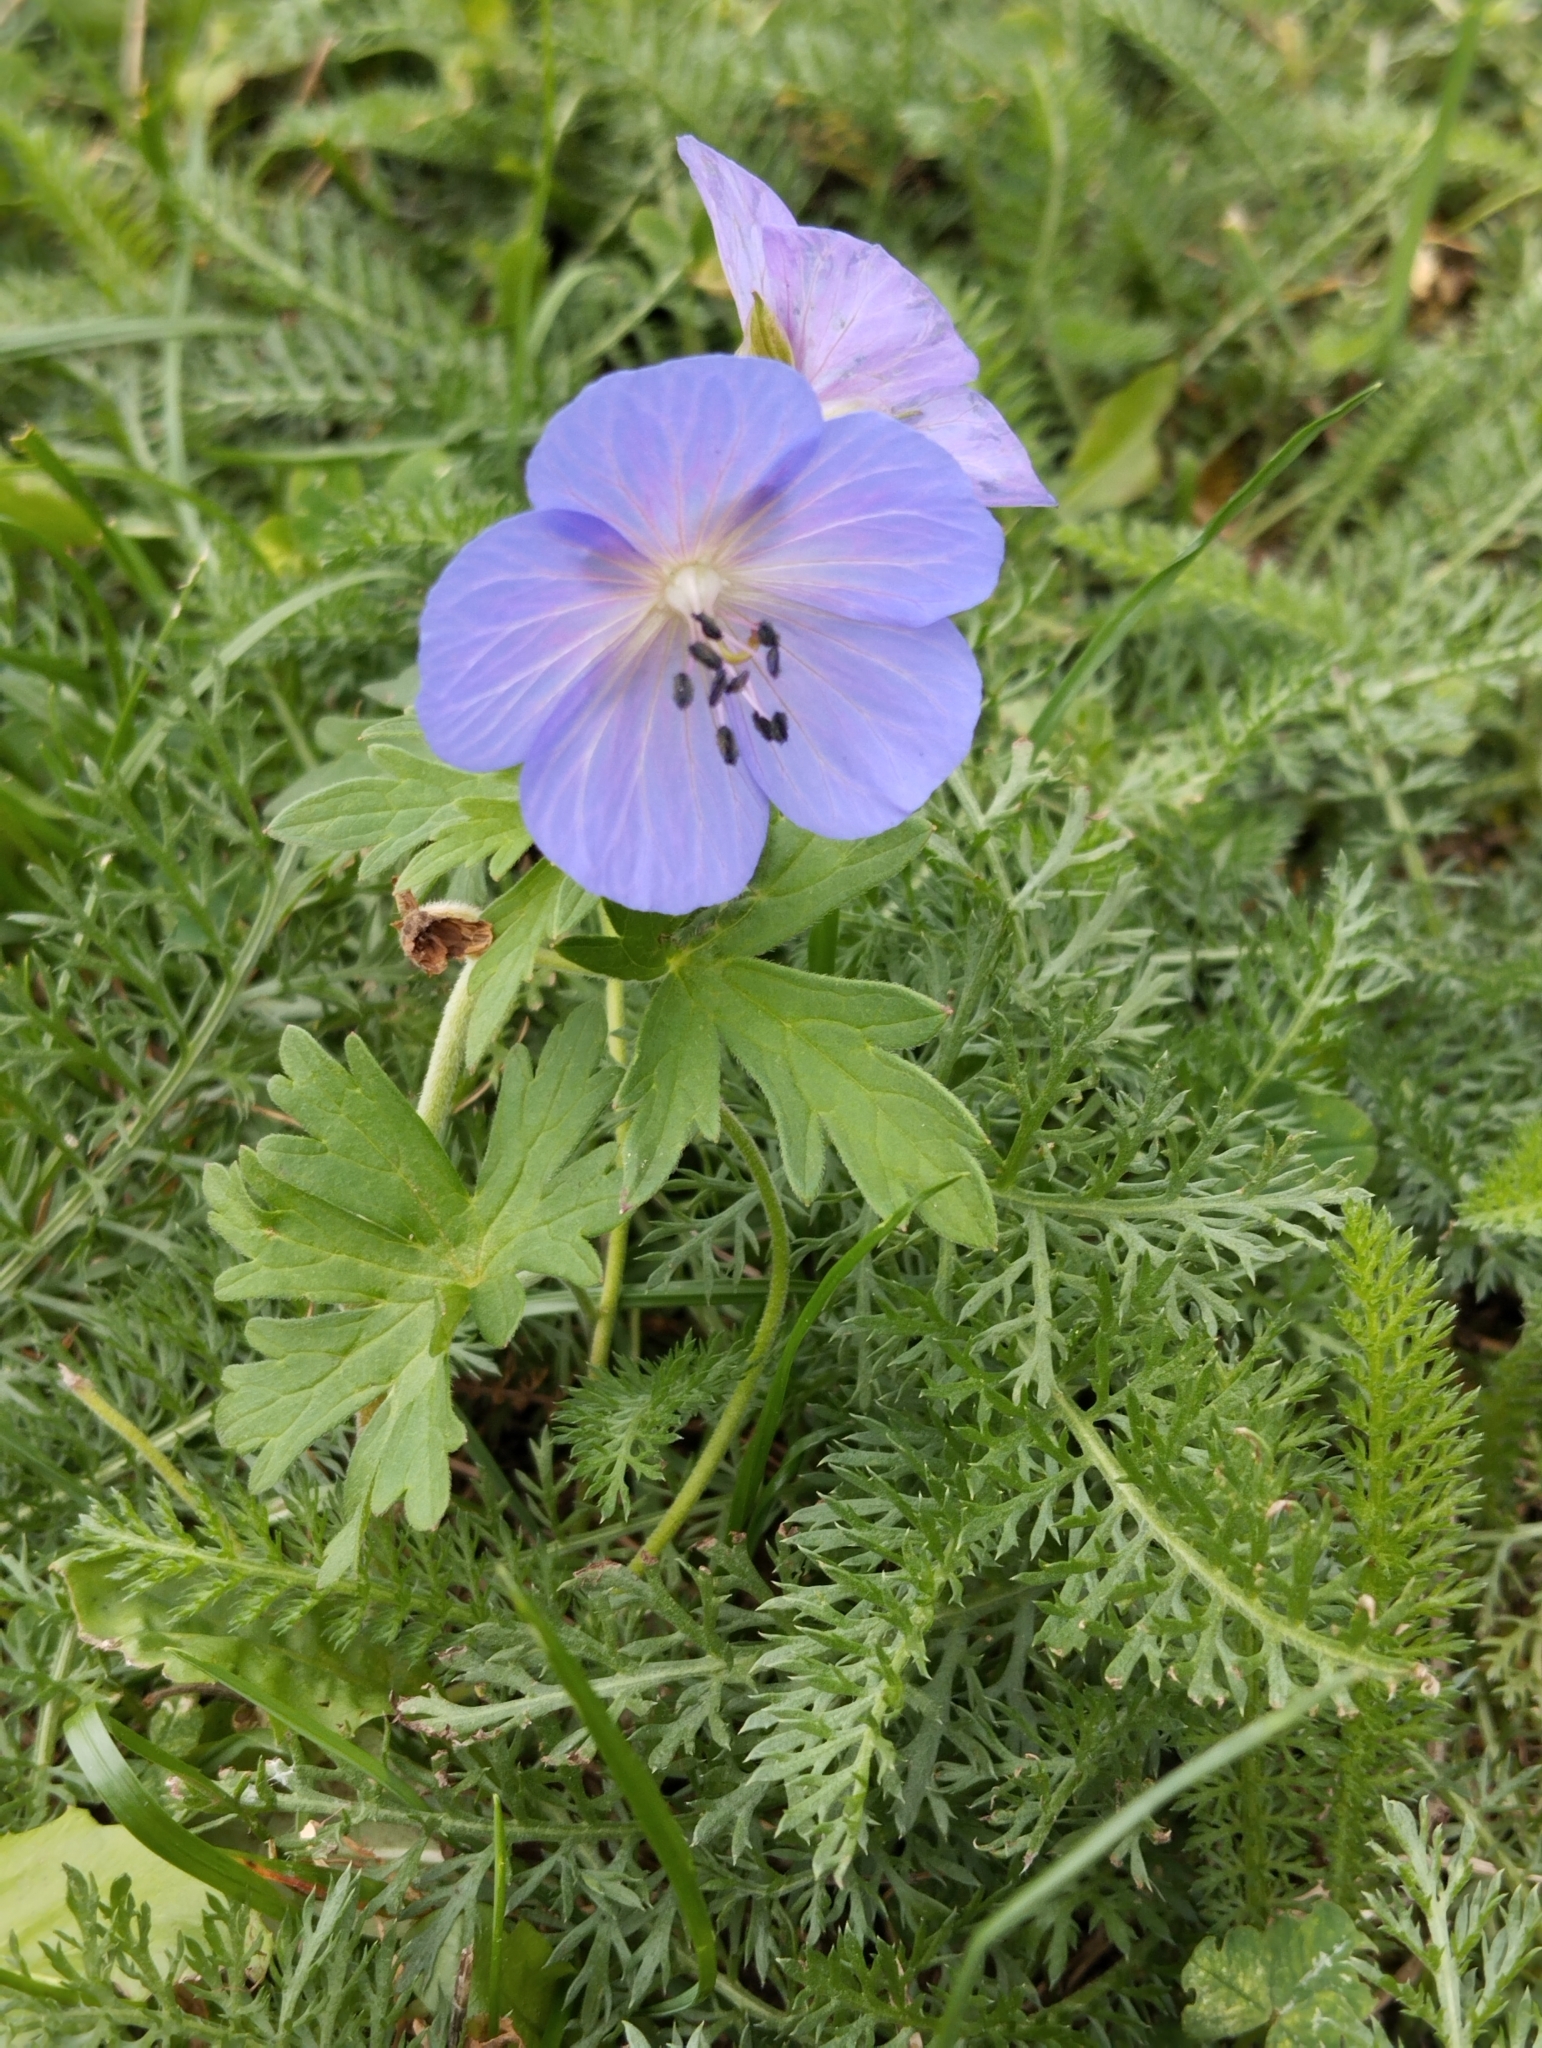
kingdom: Plantae
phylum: Tracheophyta
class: Magnoliopsida
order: Geraniales
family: Geraniaceae
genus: Geranium
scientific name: Geranium pratense
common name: Meadow crane's-bill
